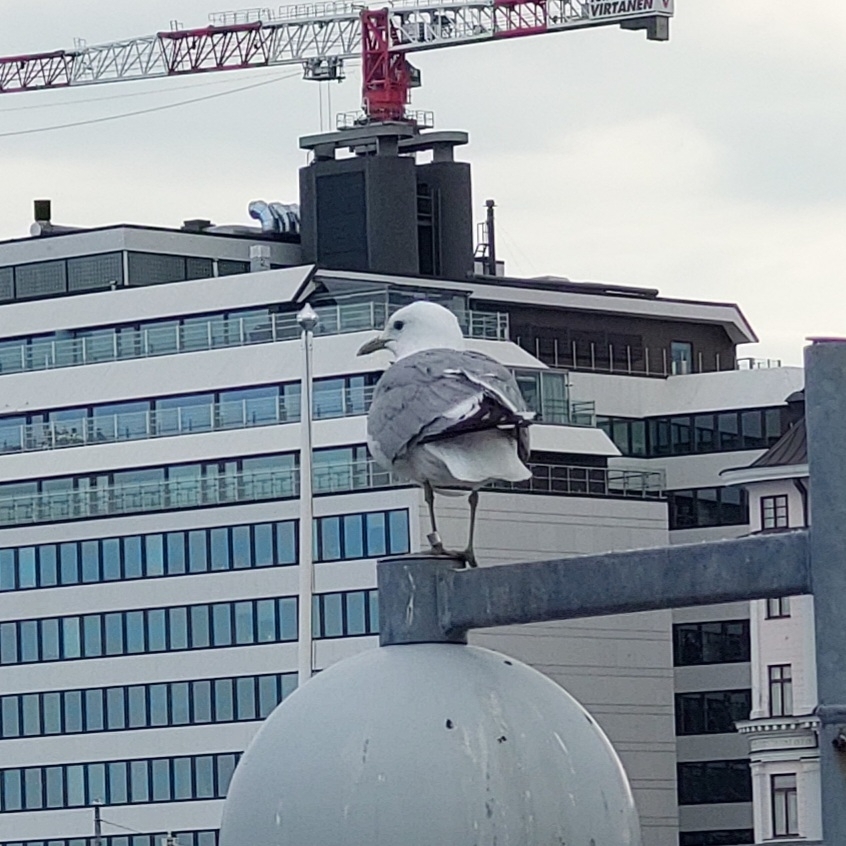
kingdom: Animalia
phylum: Chordata
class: Aves
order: Charadriiformes
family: Laridae
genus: Larus
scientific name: Larus canus
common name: Mew gull
